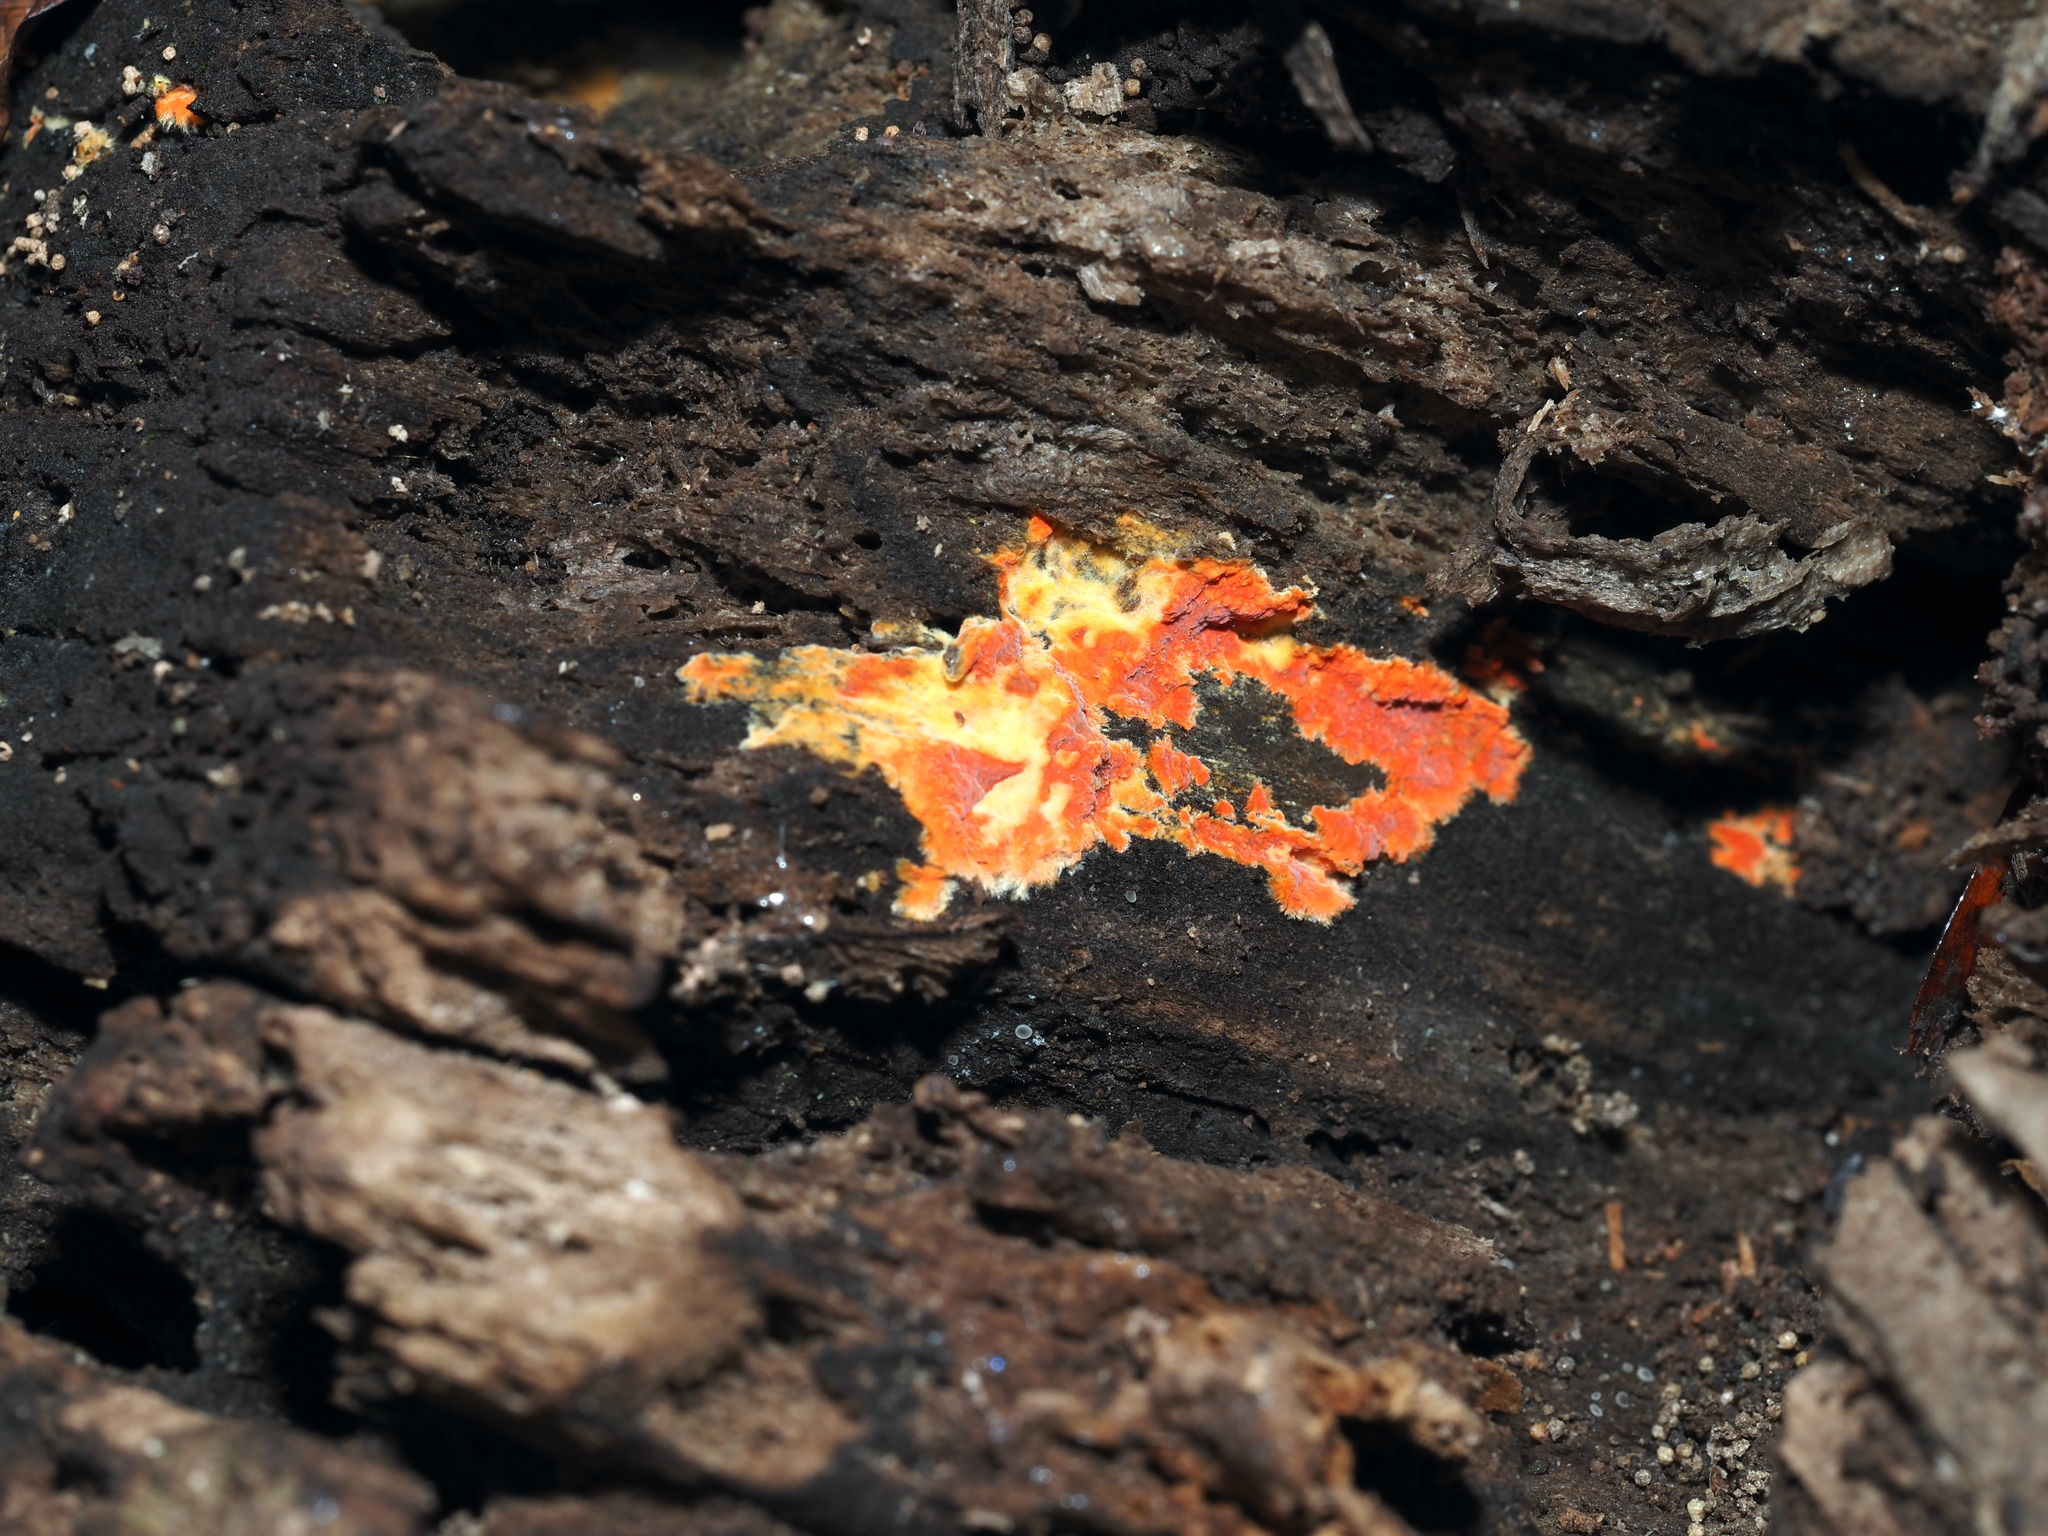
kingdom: Fungi
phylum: Basidiomycota
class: Agaricomycetes
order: Polyporales
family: Meruliaceae
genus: Phlebia
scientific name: Phlebia coccineofulva
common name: Scarlet waxcrust
